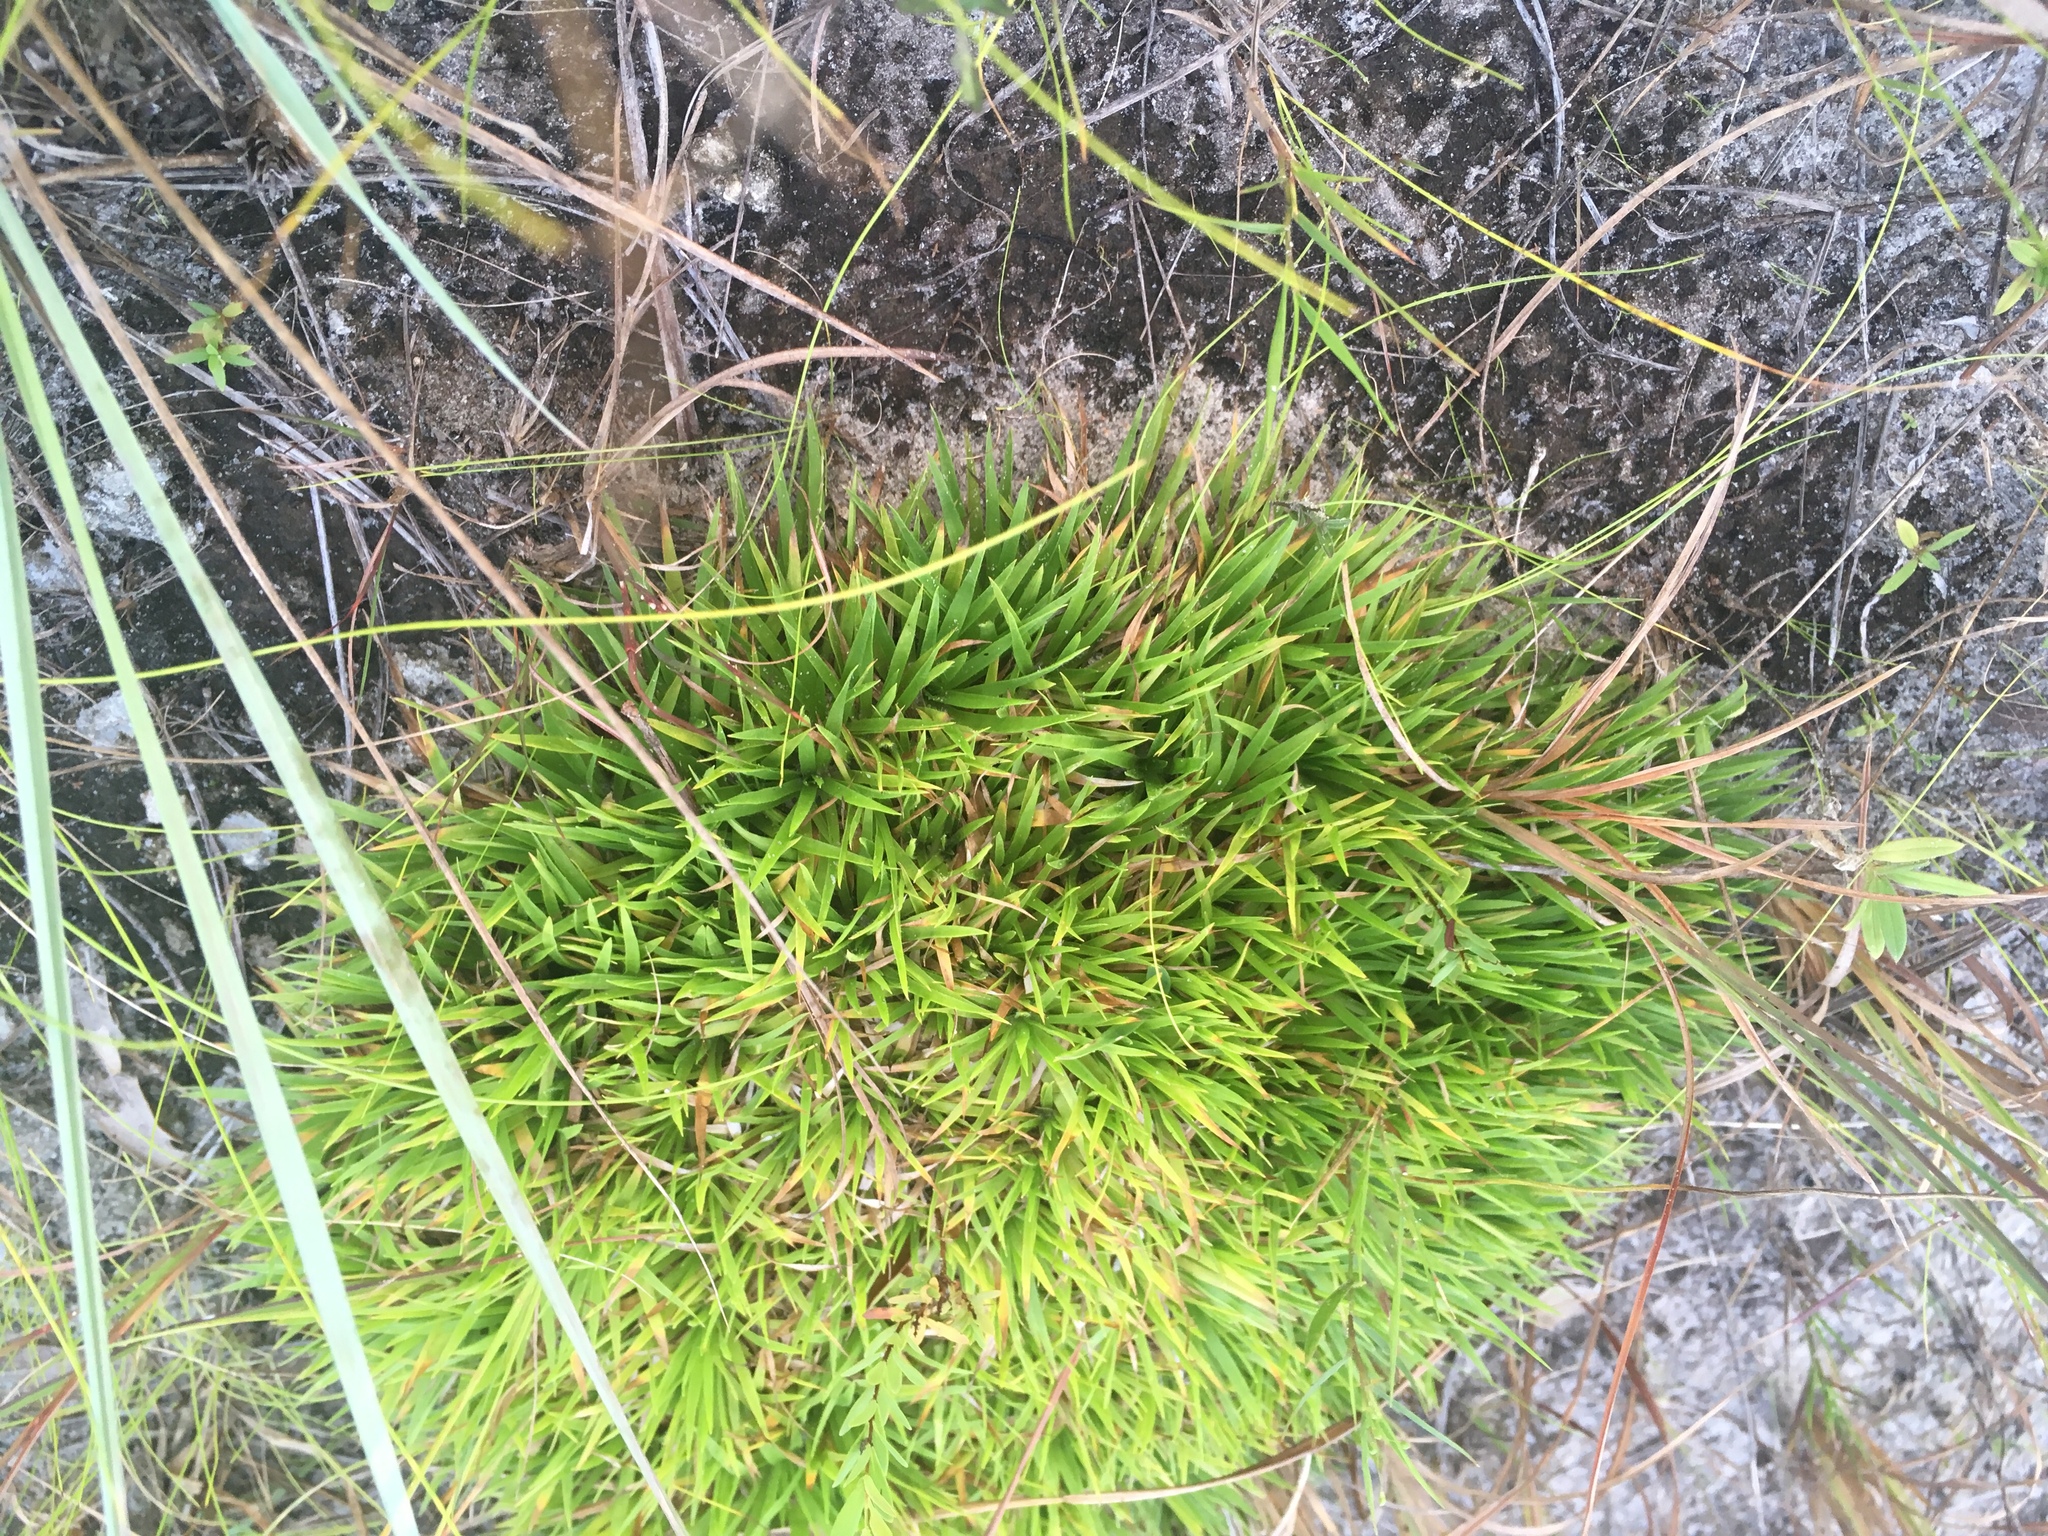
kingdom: Plantae
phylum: Tracheophyta
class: Liliopsida
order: Poales
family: Eriocaulaceae
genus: Paepalanthus
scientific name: Paepalanthus anceps
